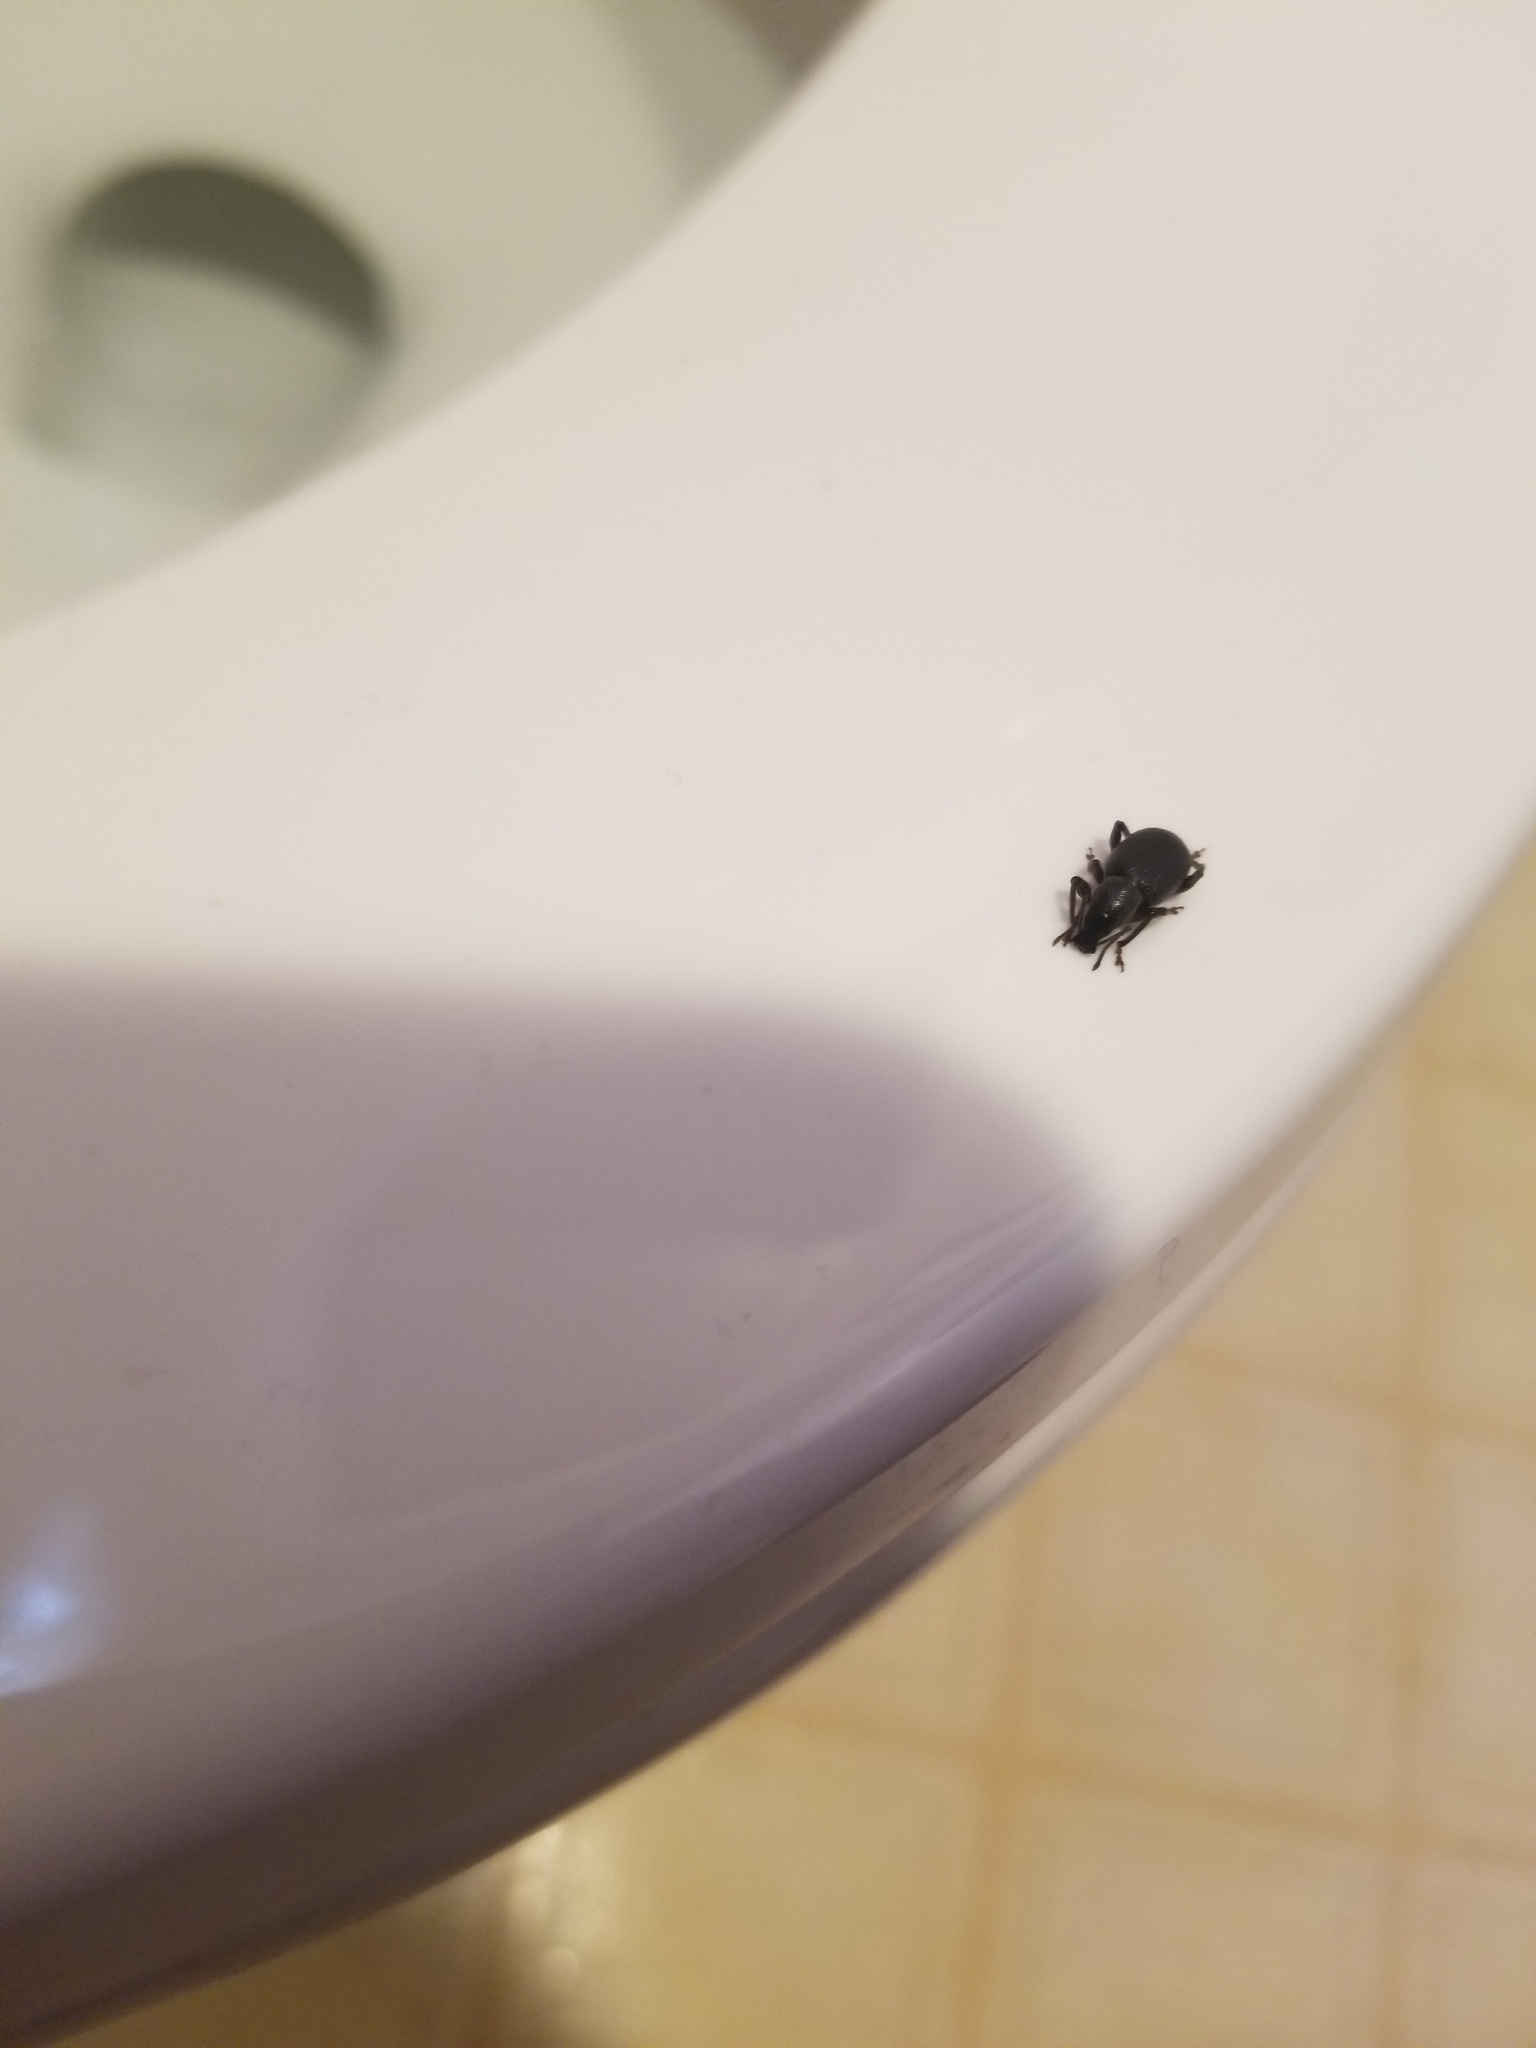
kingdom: Animalia
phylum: Arthropoda
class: Insecta
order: Coleoptera
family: Curculionidae
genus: Otiorhynchus
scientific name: Otiorhynchus meridionalis
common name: Weevil
